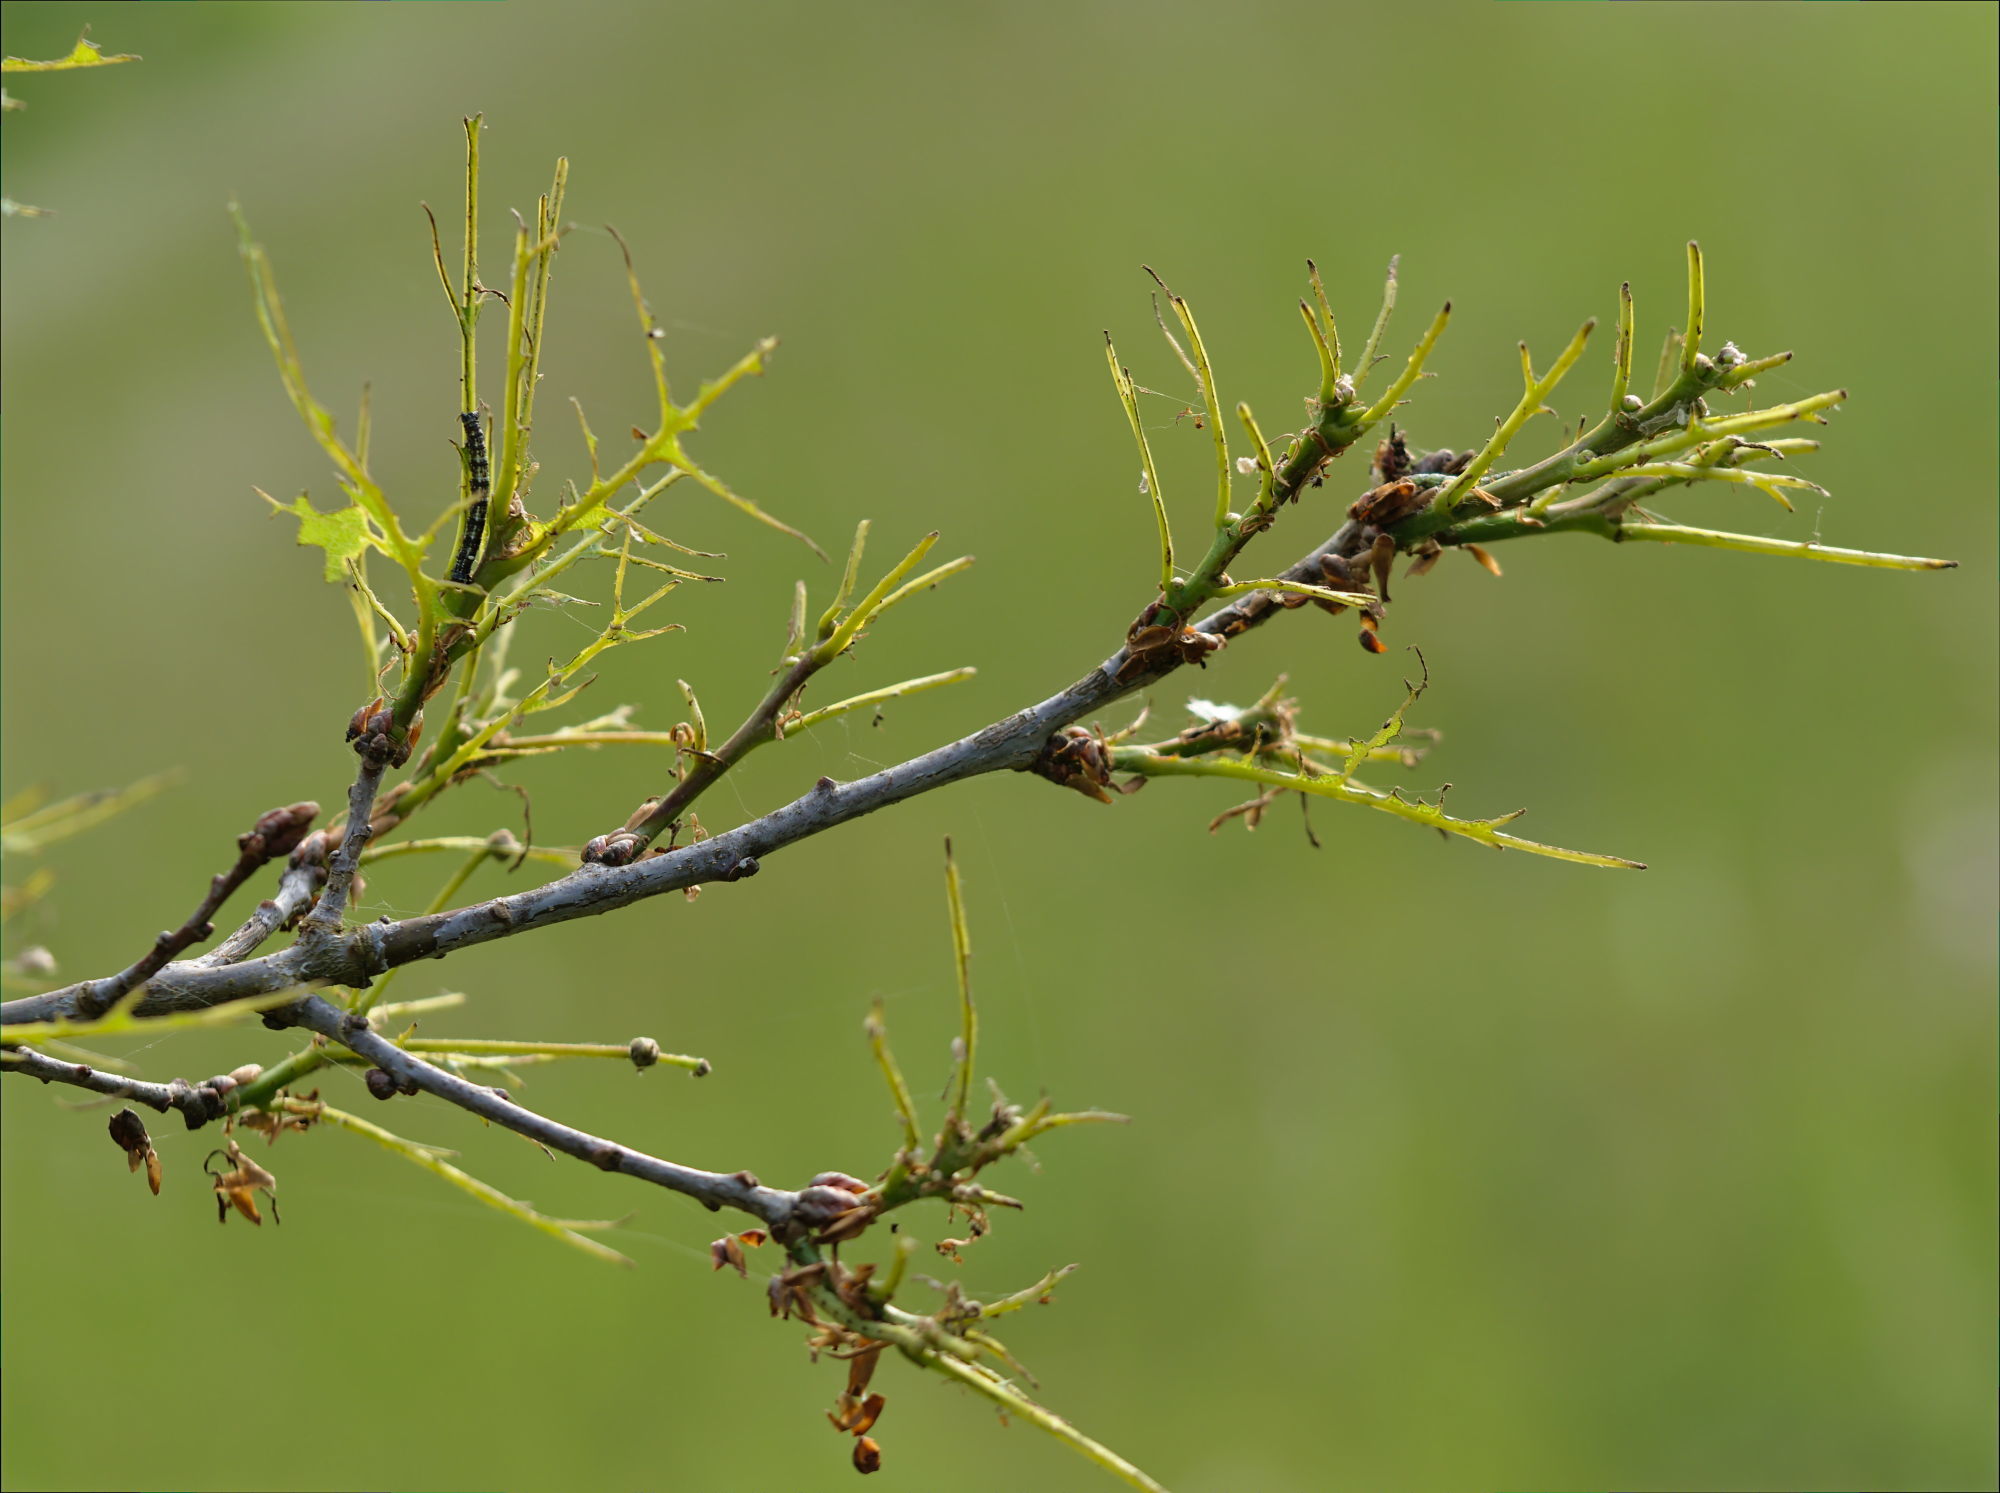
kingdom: Animalia
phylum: Arthropoda
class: Insecta
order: Lepidoptera
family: Geometridae
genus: Agriopis
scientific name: Agriopis leucophaearia
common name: Spring usher
